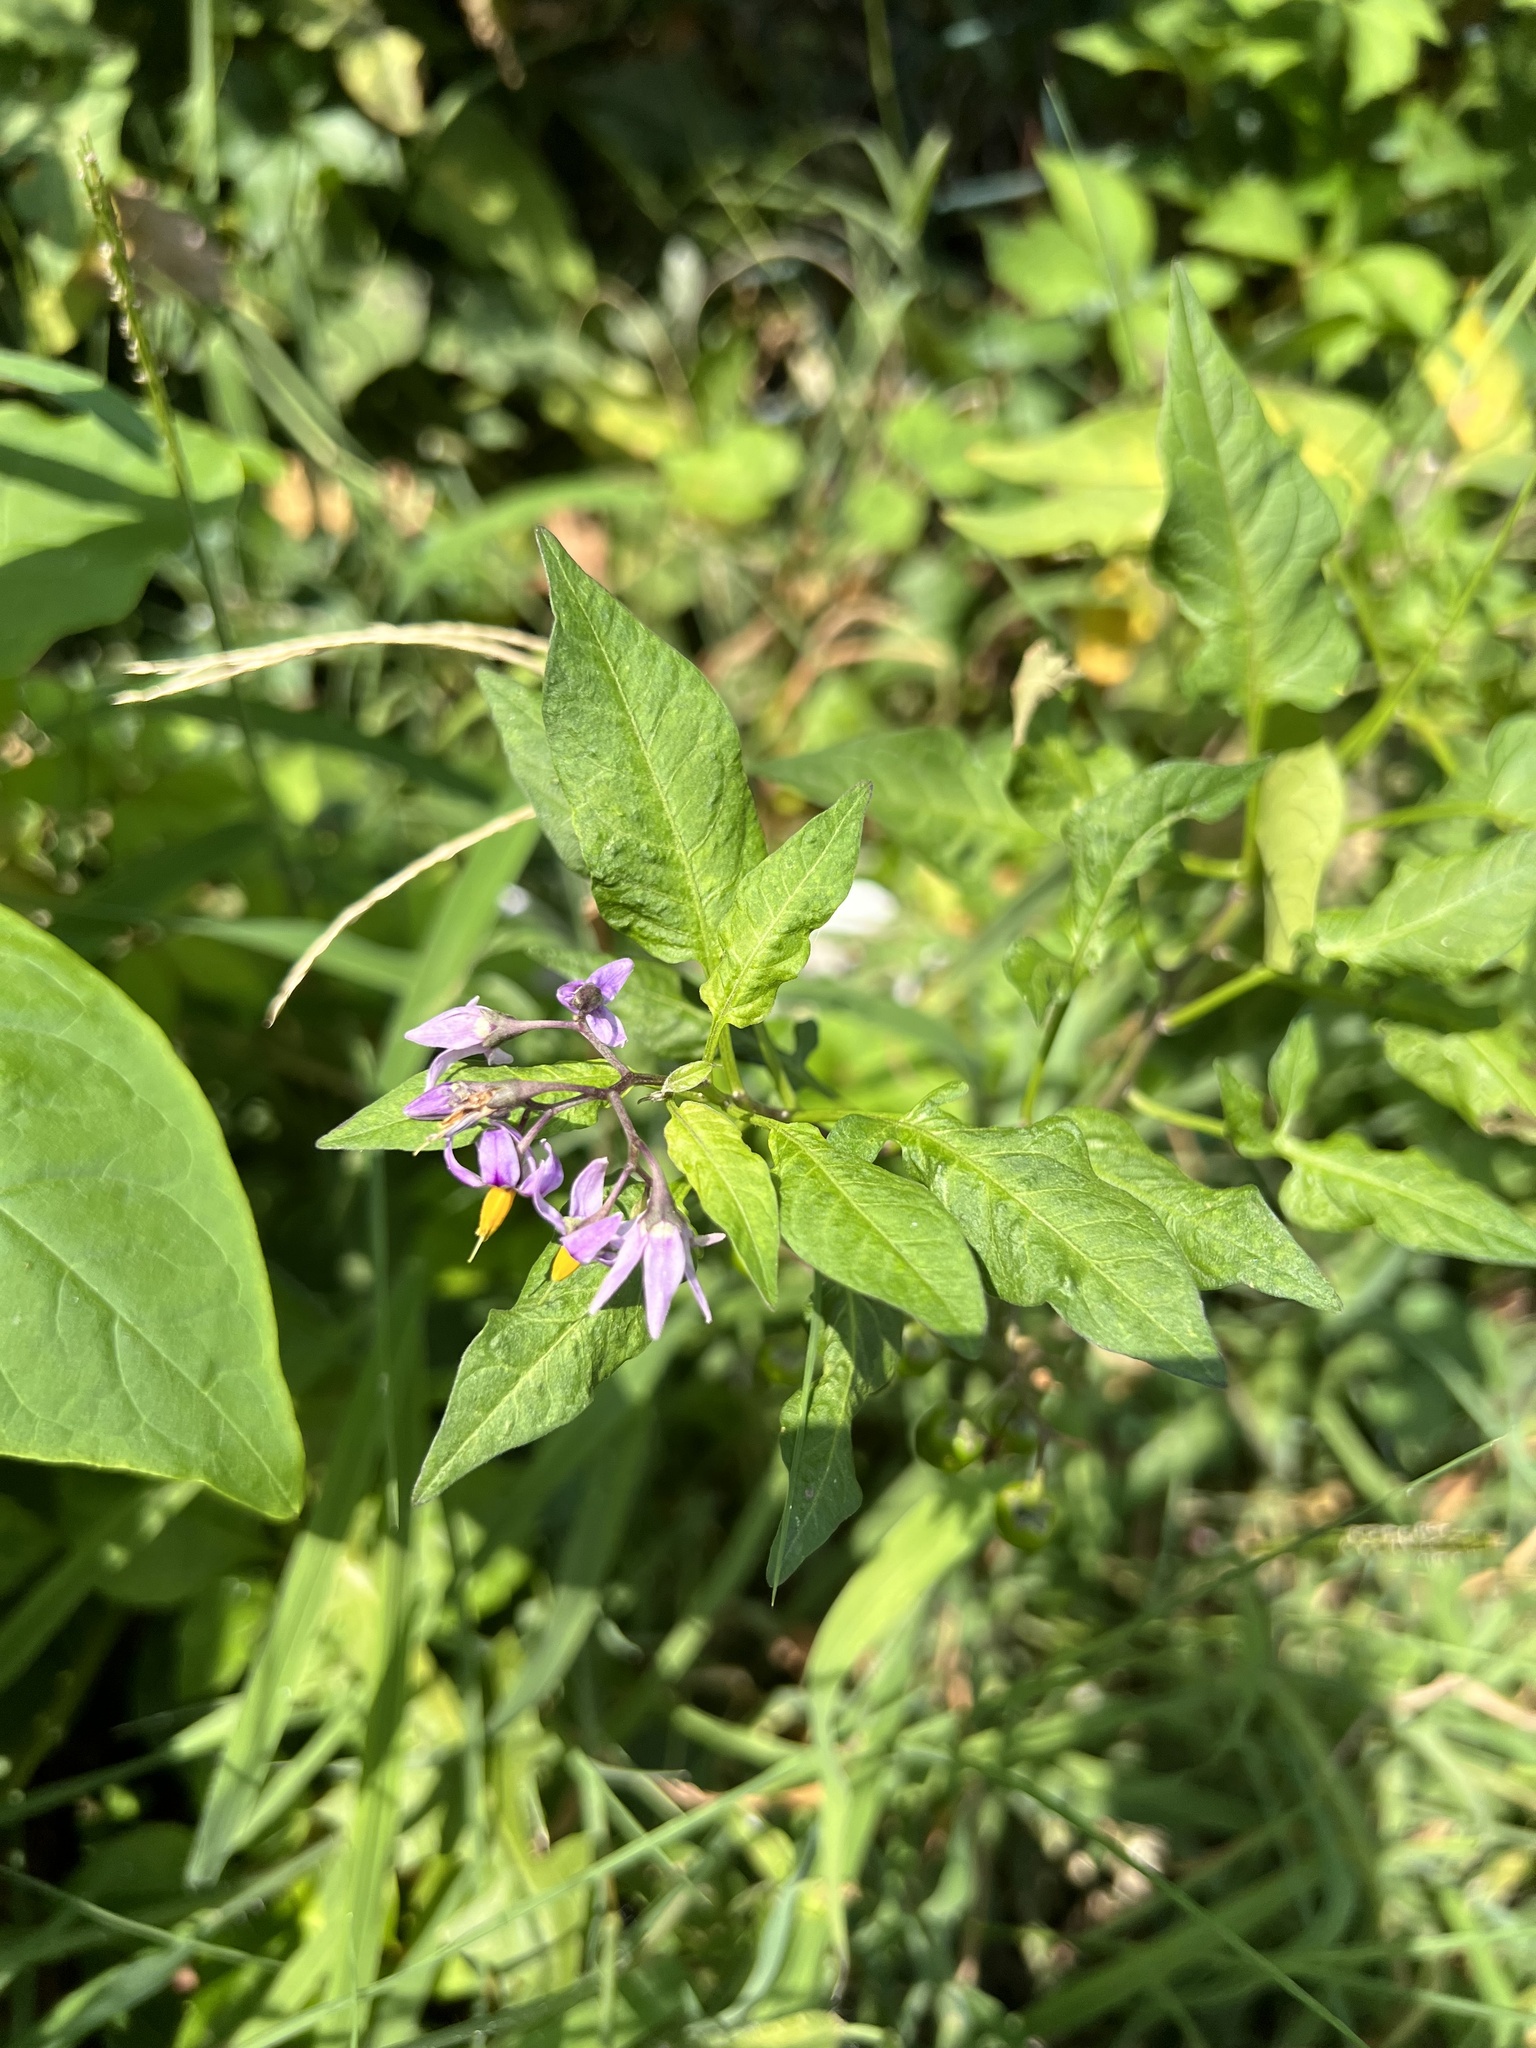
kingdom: Plantae
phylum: Tracheophyta
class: Magnoliopsida
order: Solanales
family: Solanaceae
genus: Solanum
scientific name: Solanum dulcamara
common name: Climbing nightshade
